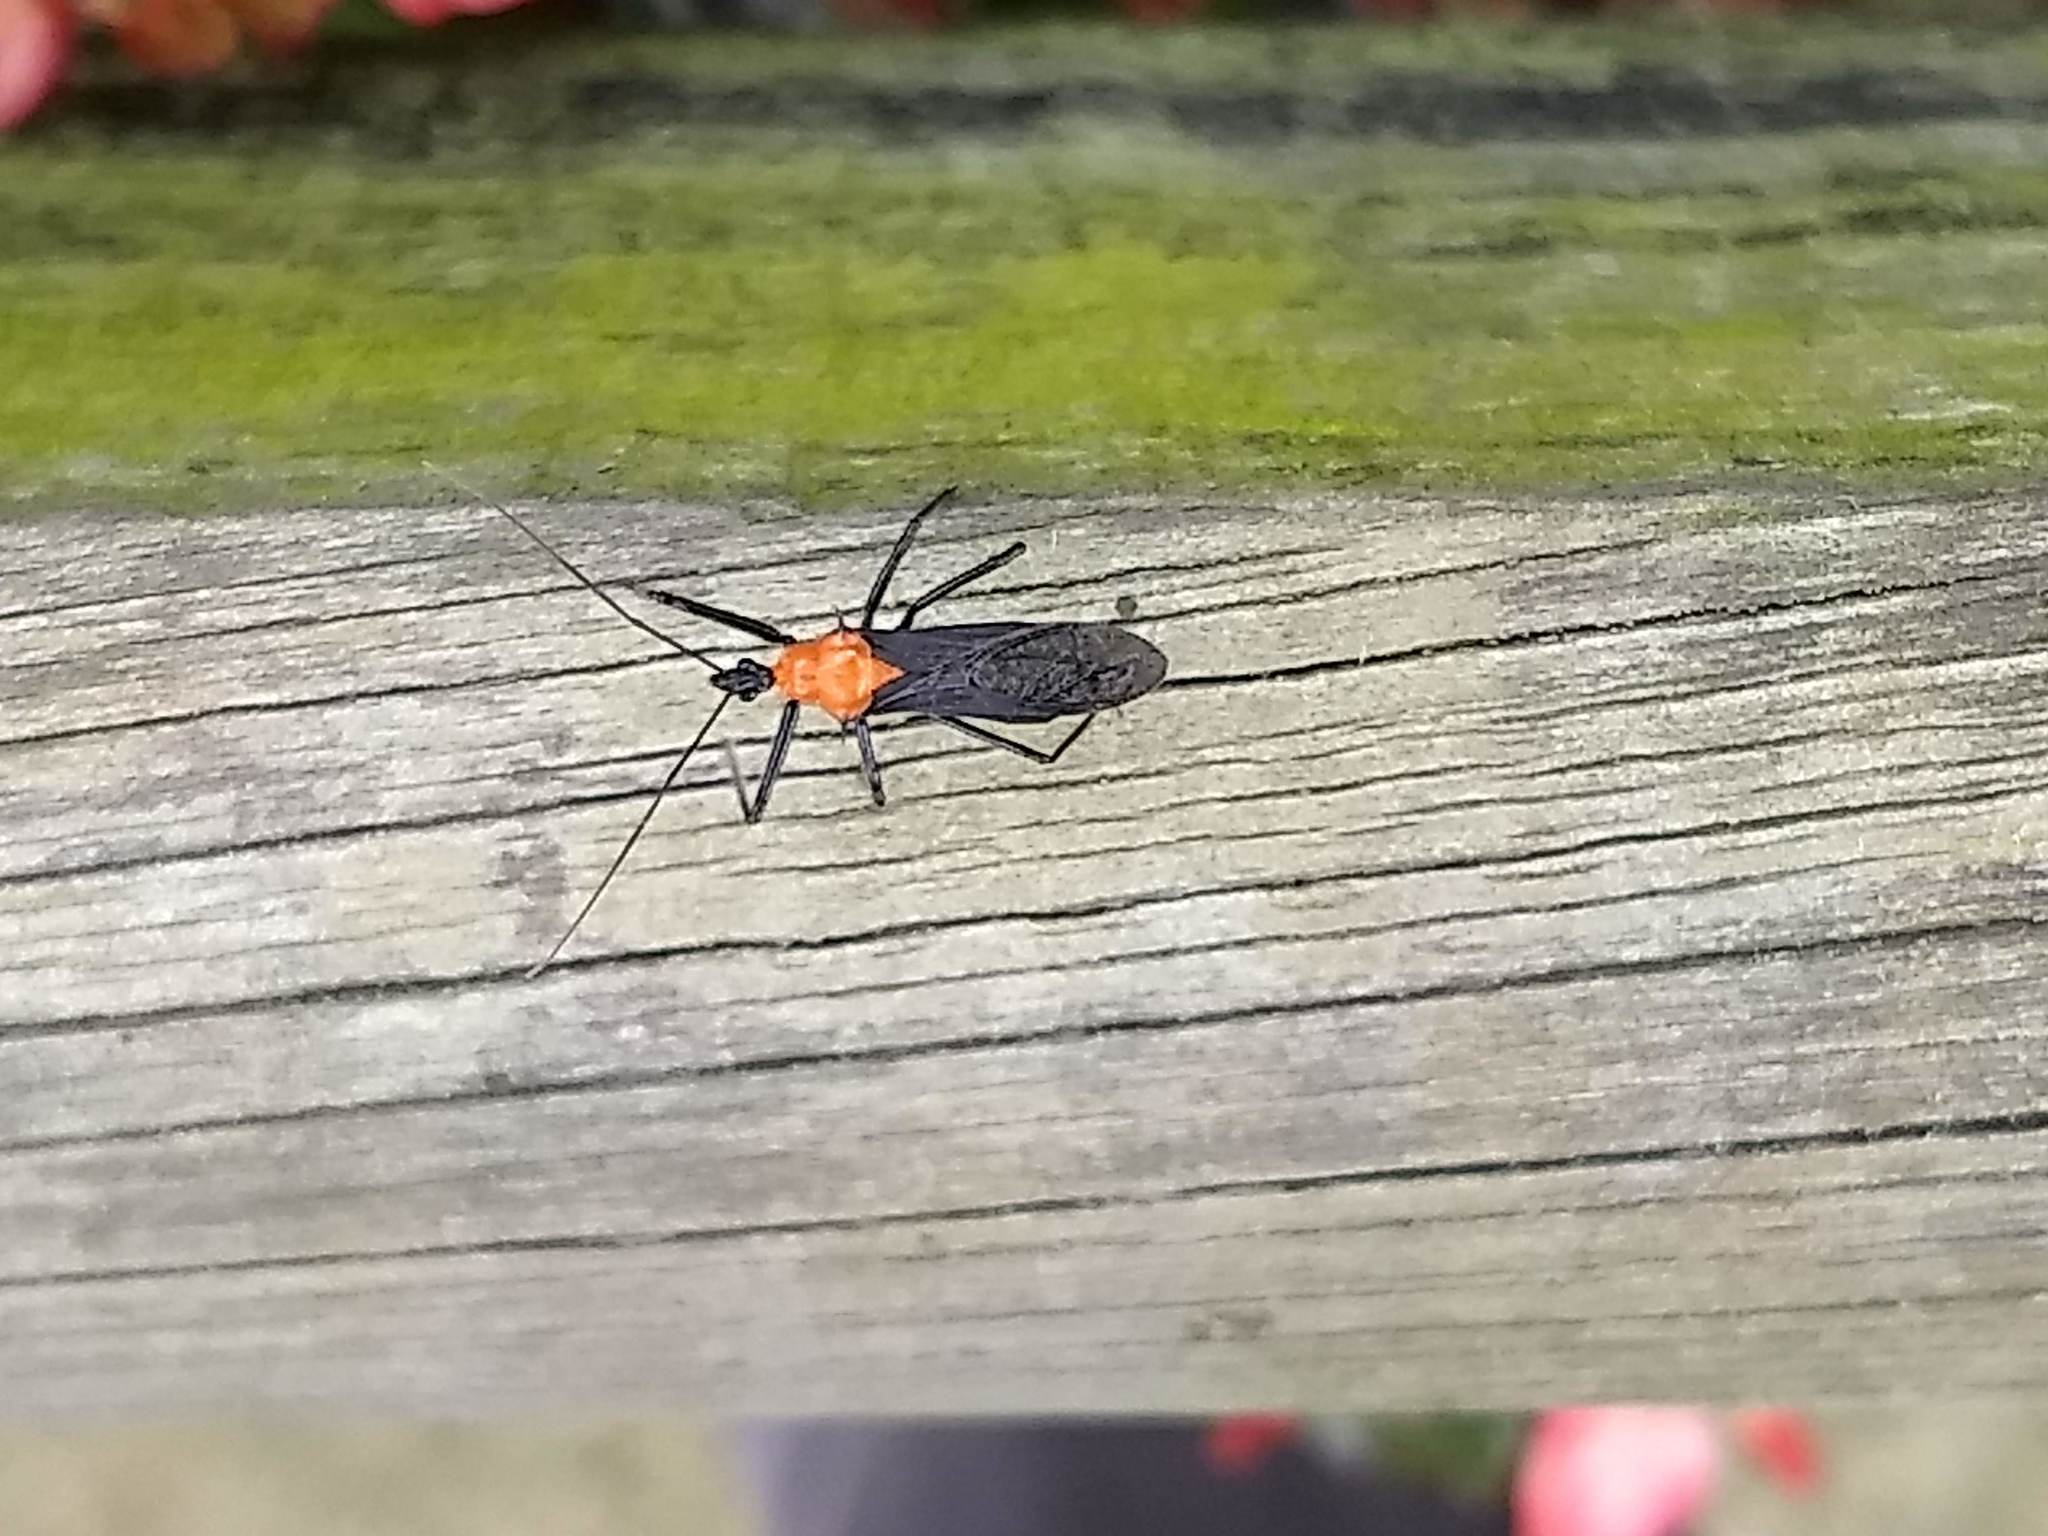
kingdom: Animalia
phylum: Arthropoda
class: Insecta
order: Hemiptera
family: Reduviidae
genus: Castolus
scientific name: Castolus rafaeli
